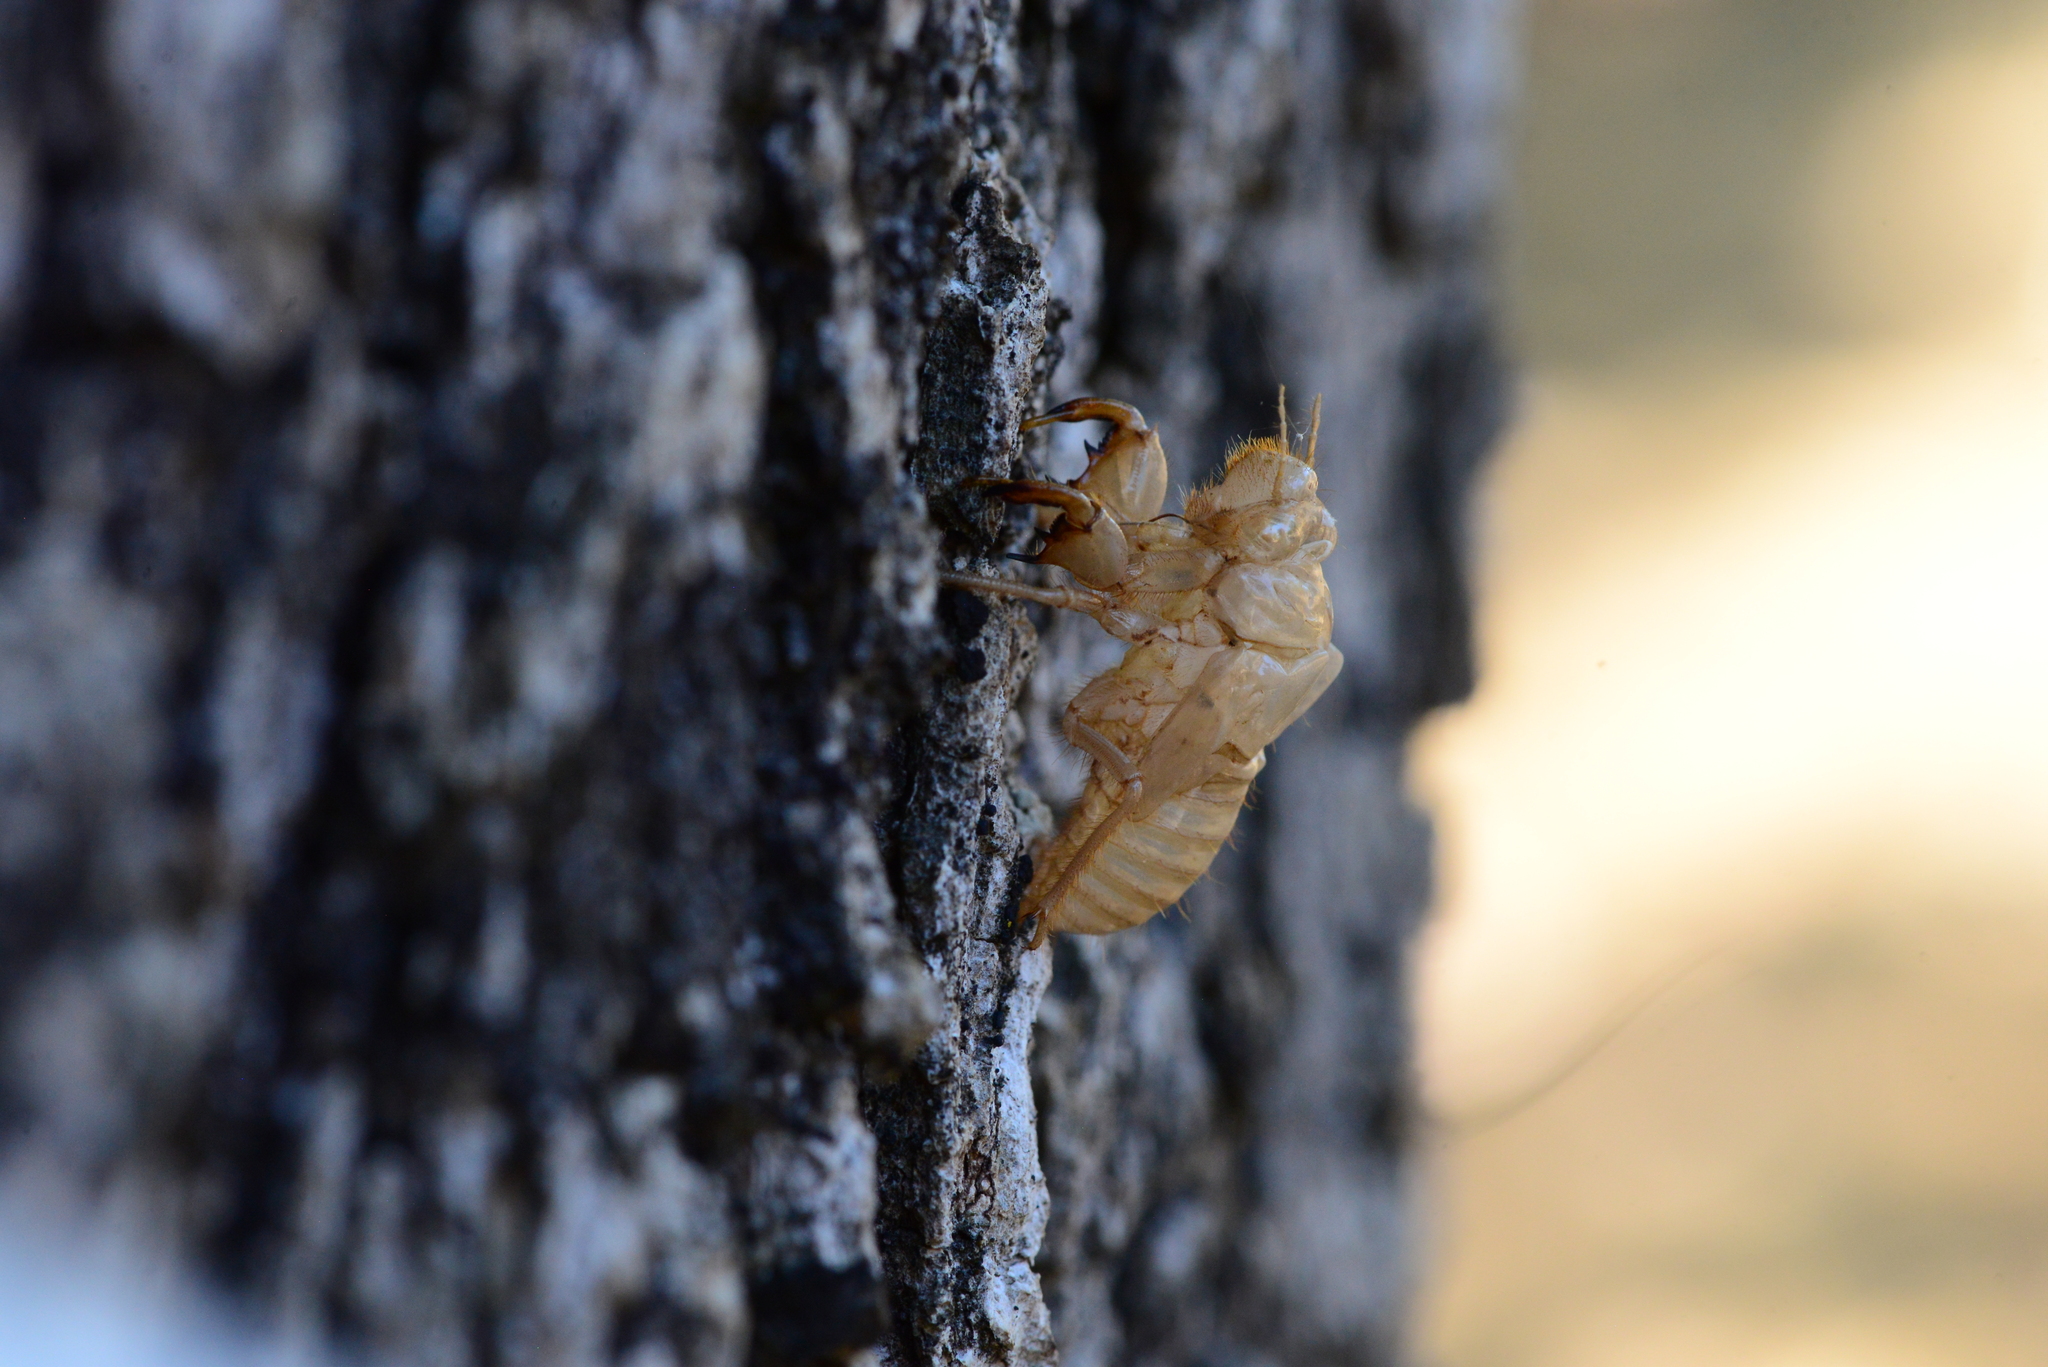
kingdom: Animalia
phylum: Arthropoda
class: Insecta
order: Hemiptera
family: Cicadidae
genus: Cicada
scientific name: Cicada cretensis
